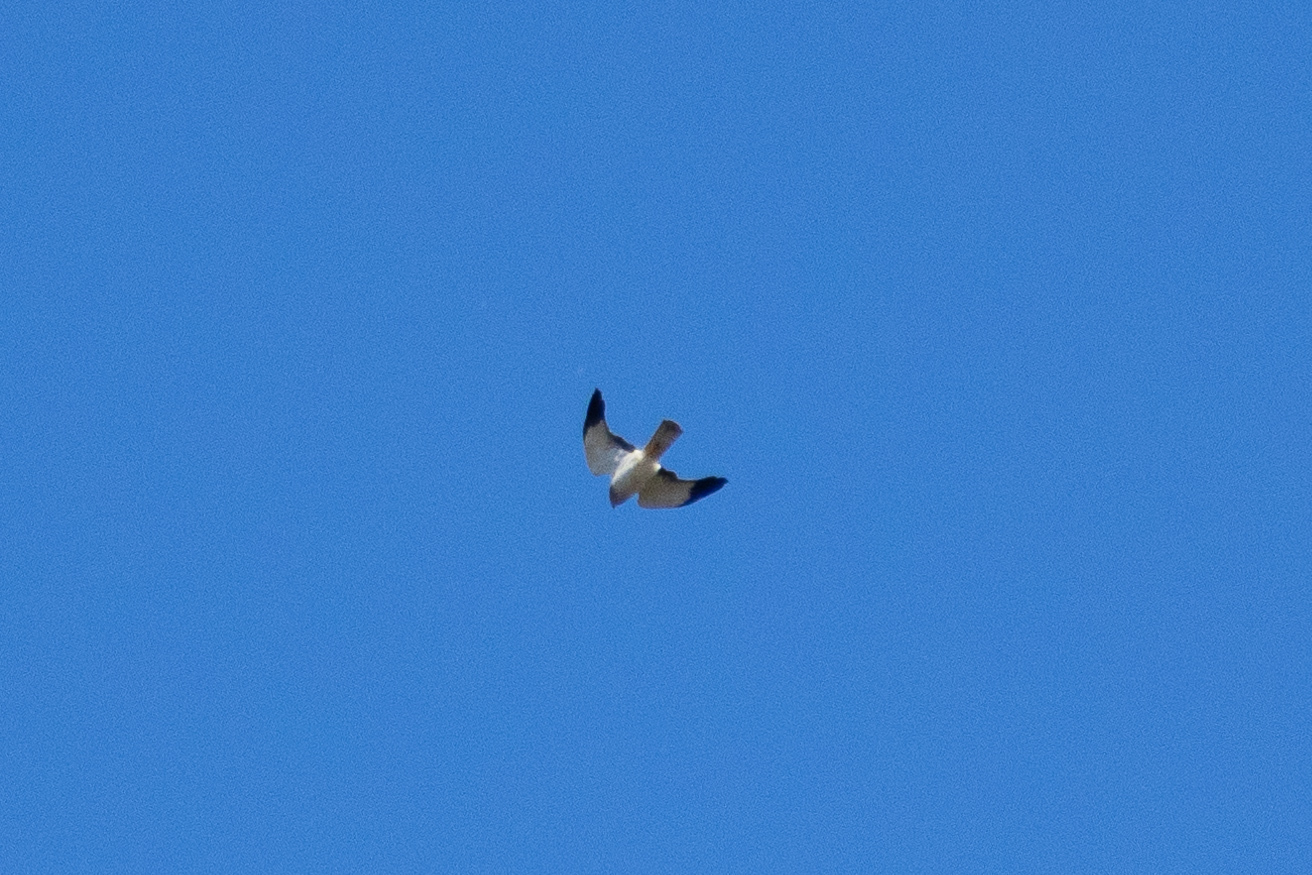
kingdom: Animalia
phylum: Chordata
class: Aves
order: Accipitriformes
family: Accipitridae
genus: Circus
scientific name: Circus cyaneus
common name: Hen harrier
